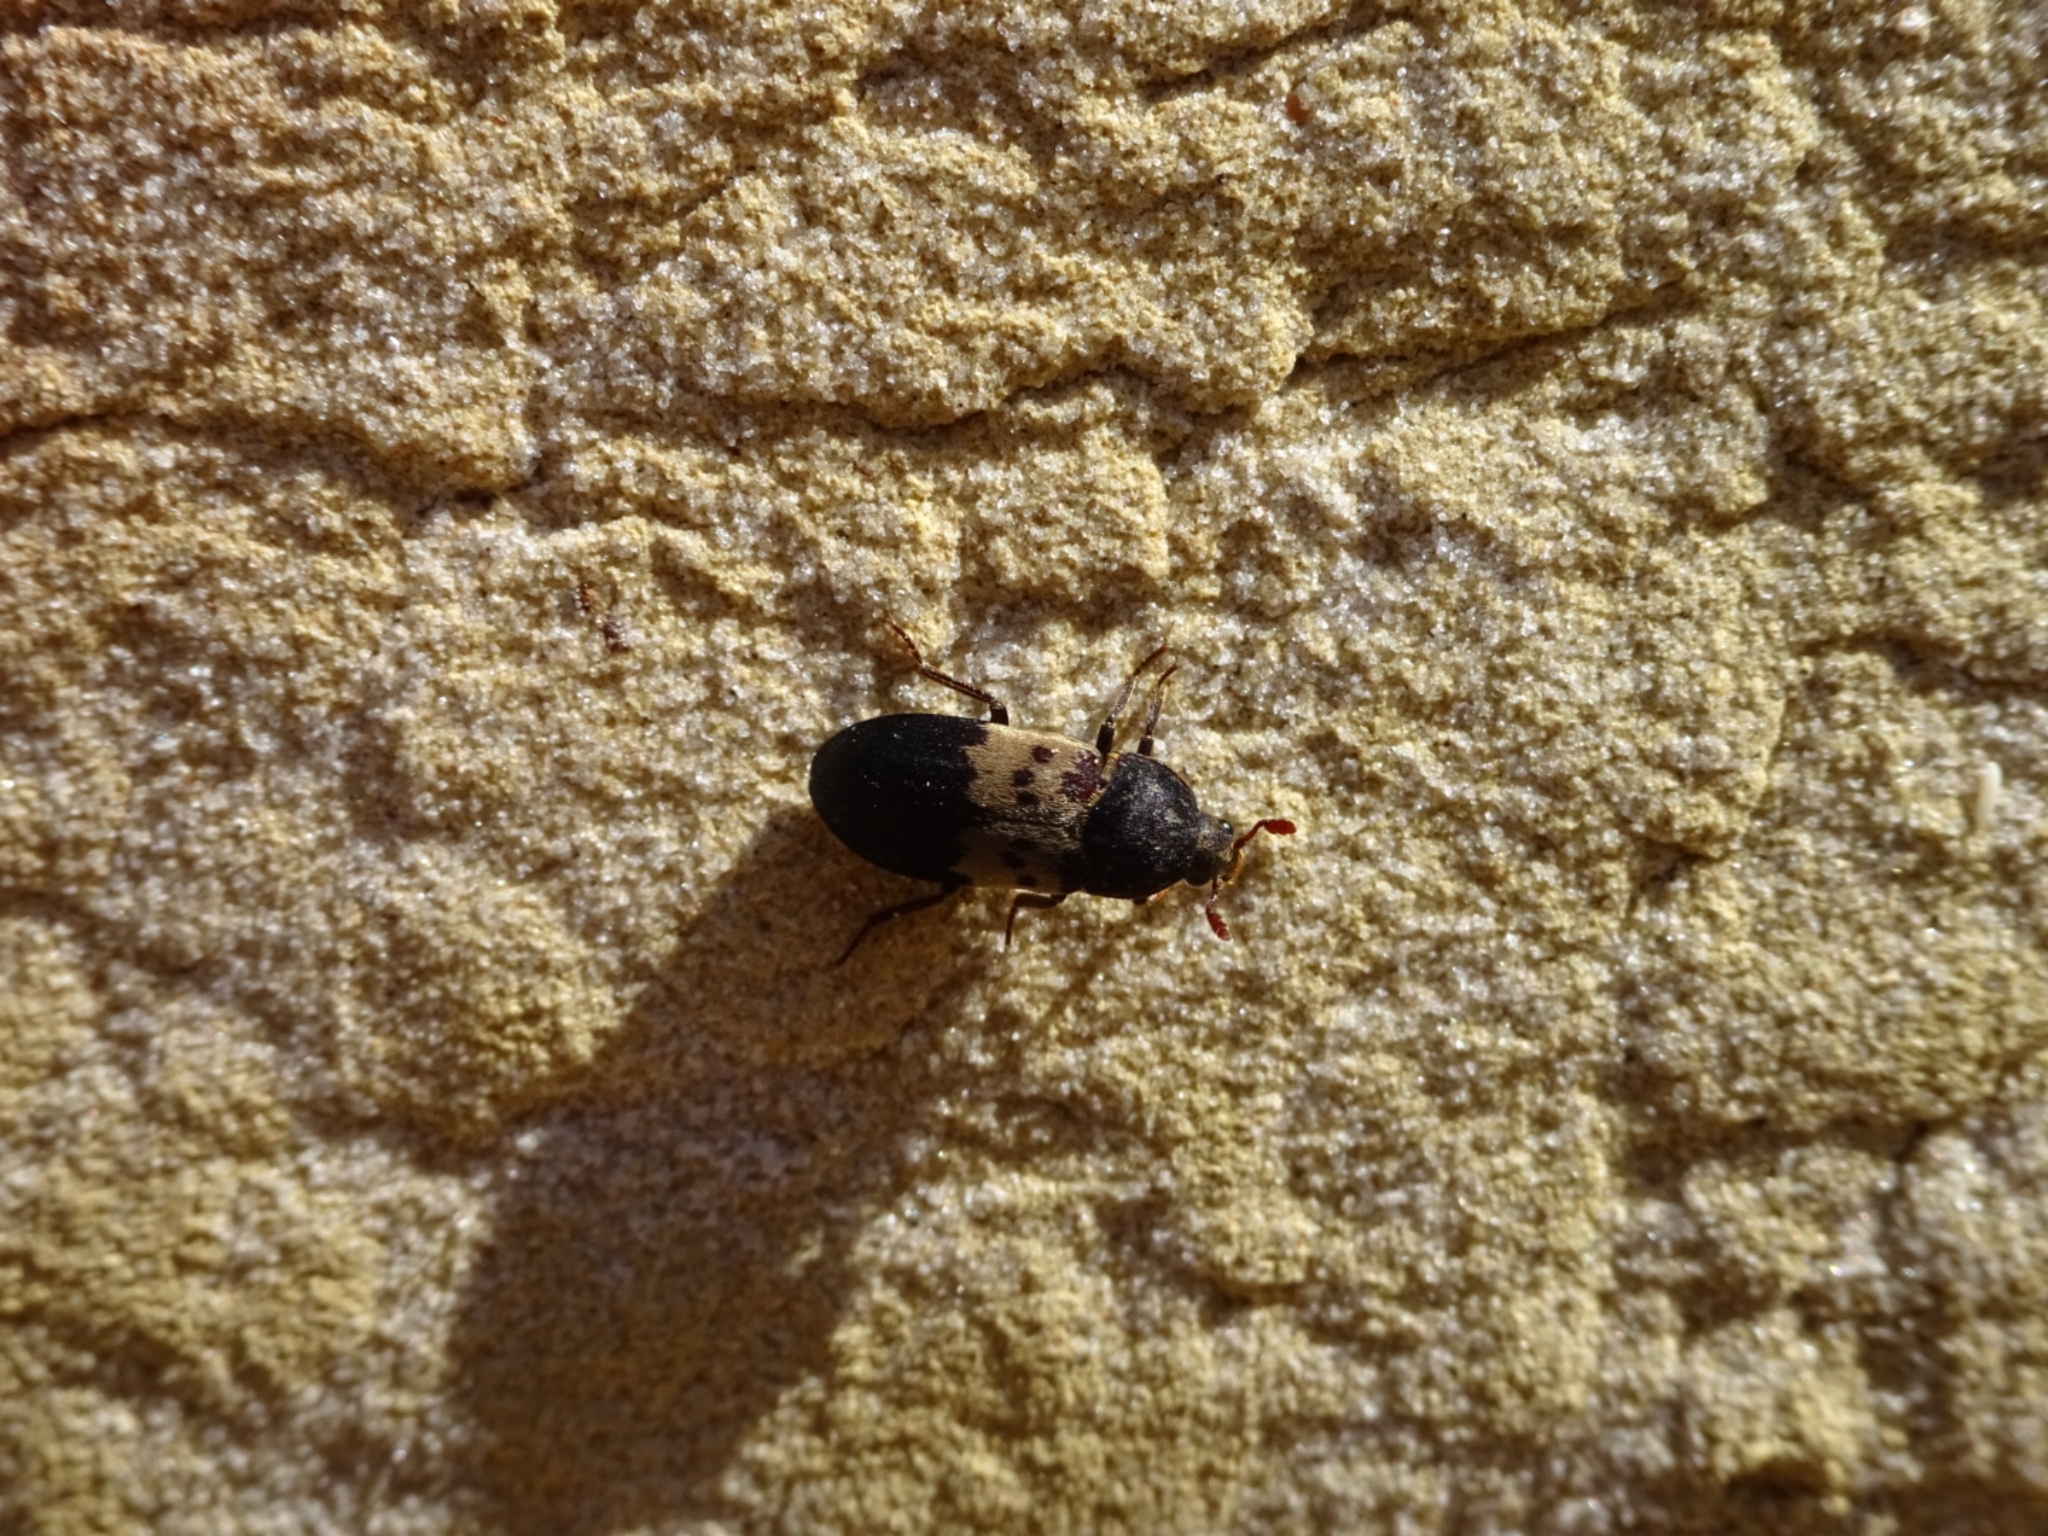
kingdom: Animalia
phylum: Arthropoda
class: Insecta
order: Coleoptera
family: Dermestidae
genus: Dermestes
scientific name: Dermestes lardarius
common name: Larder beetle
